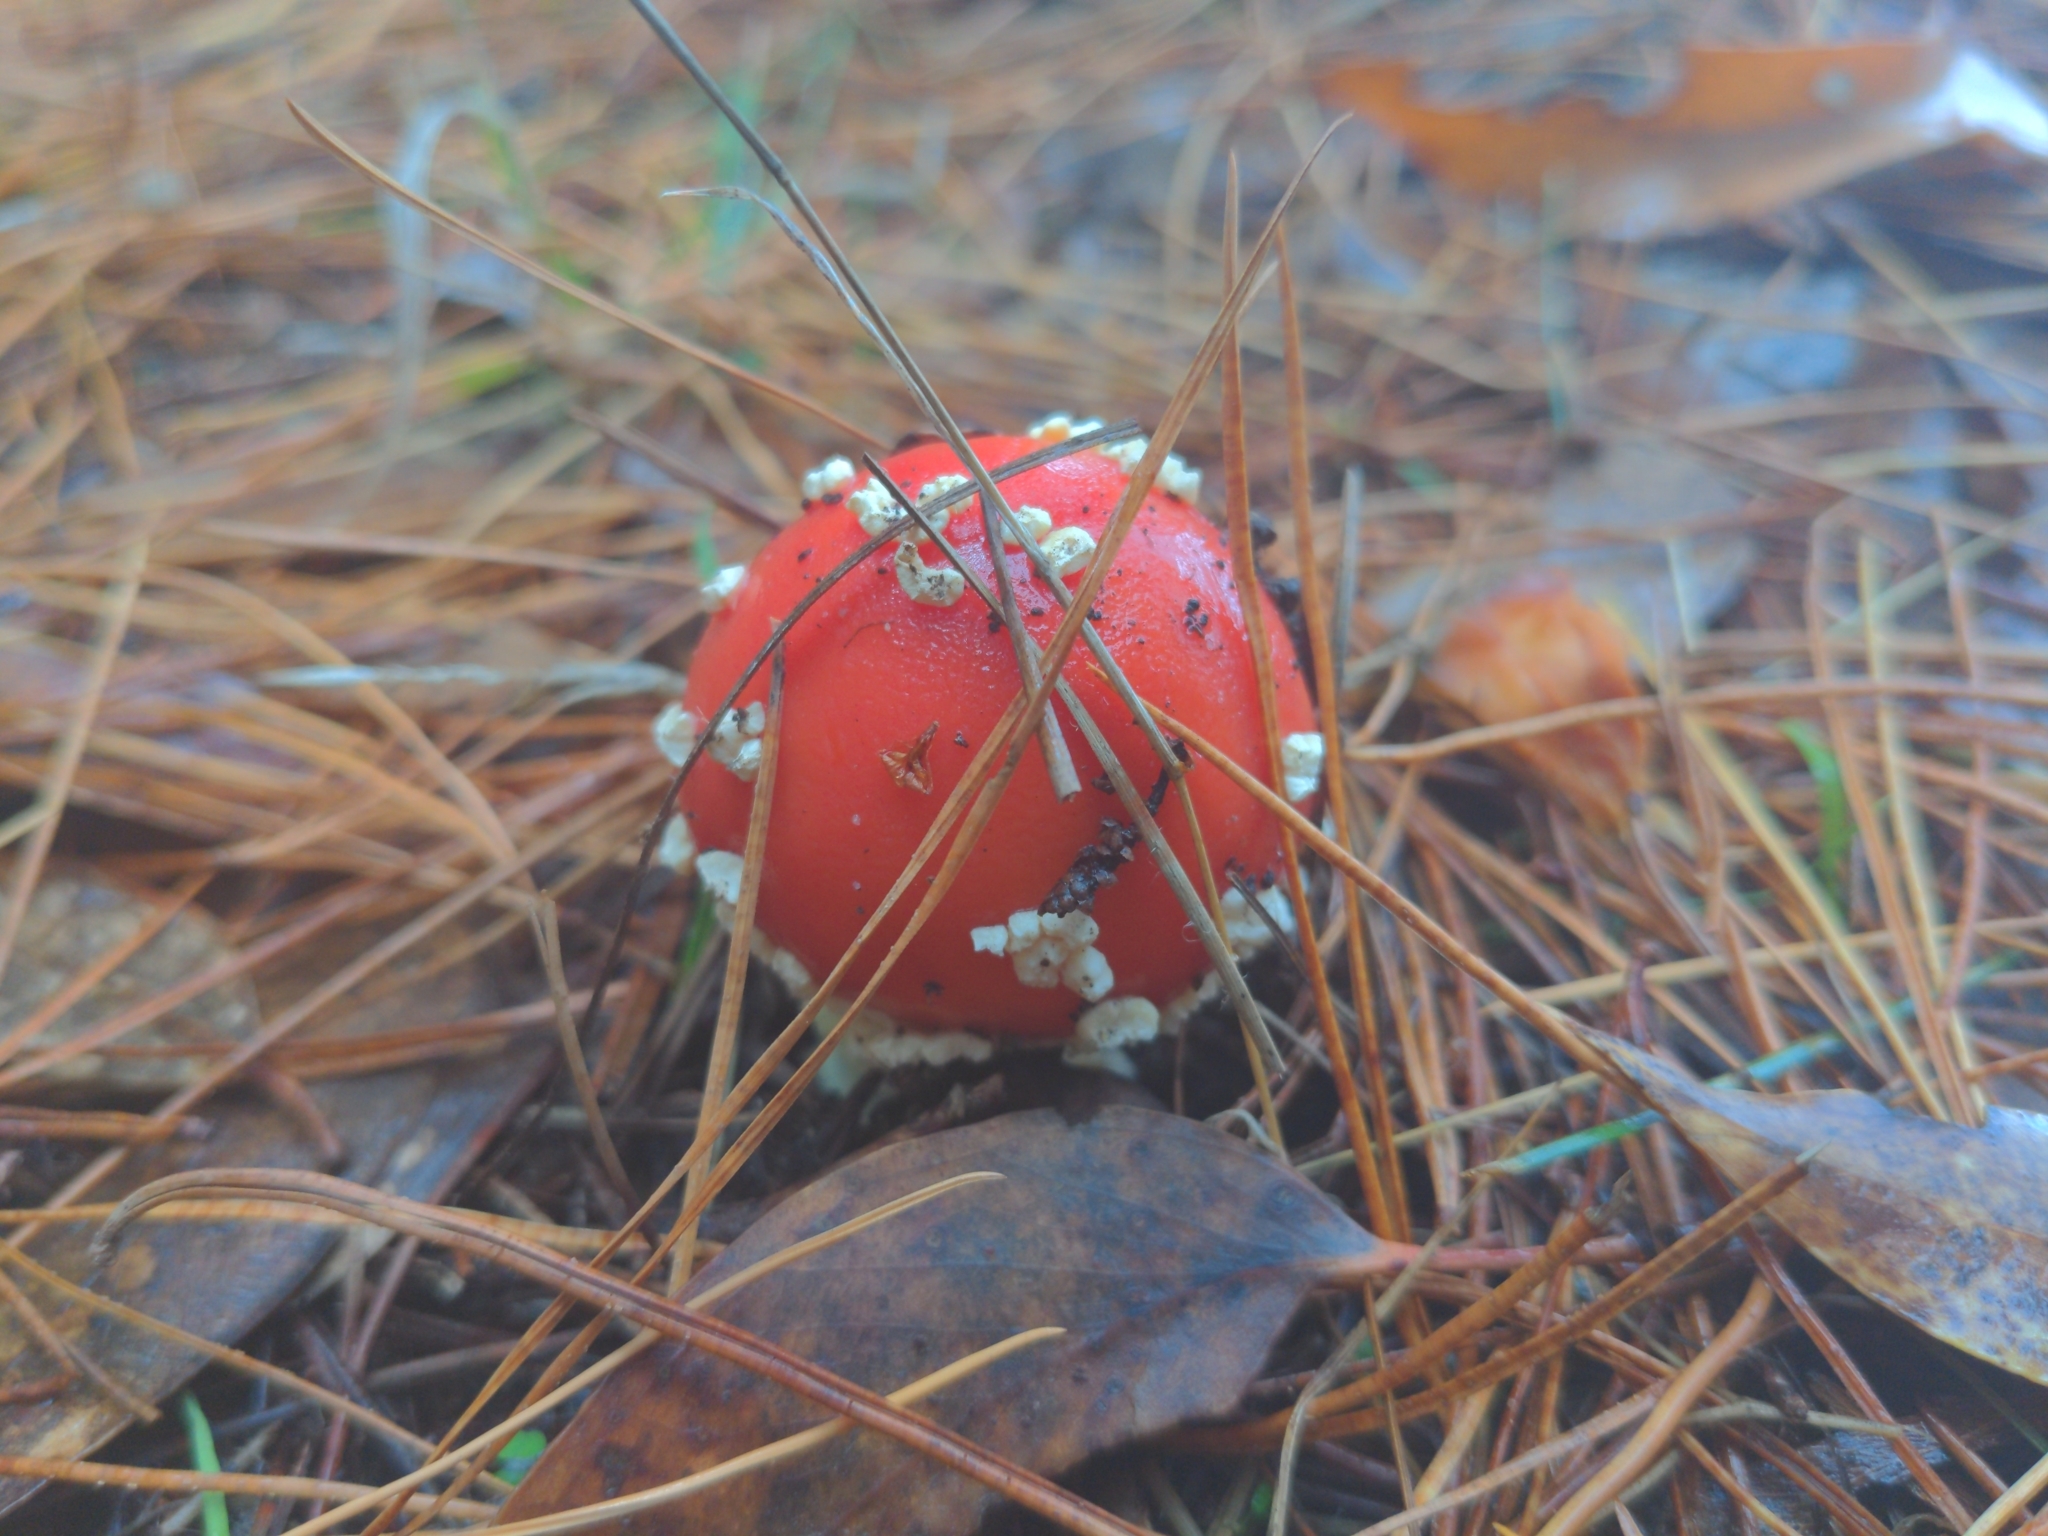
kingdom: Fungi
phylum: Basidiomycota
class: Agaricomycetes
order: Agaricales
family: Amanitaceae
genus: Amanita
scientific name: Amanita muscaria
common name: Fly agaric
